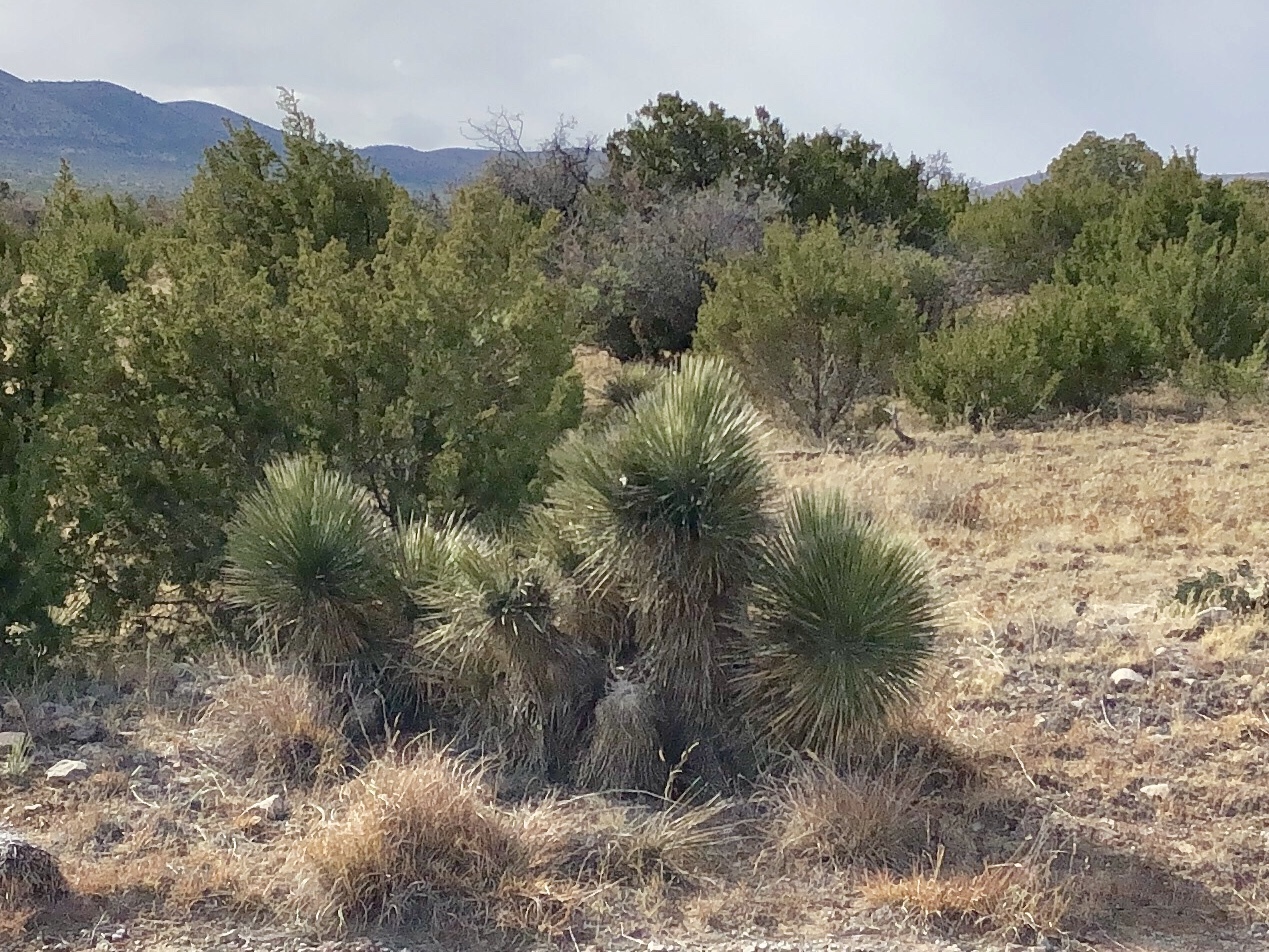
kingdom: Plantae
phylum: Tracheophyta
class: Liliopsida
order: Asparagales
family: Asparagaceae
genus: Yucca
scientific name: Yucca elata
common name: Palmella
